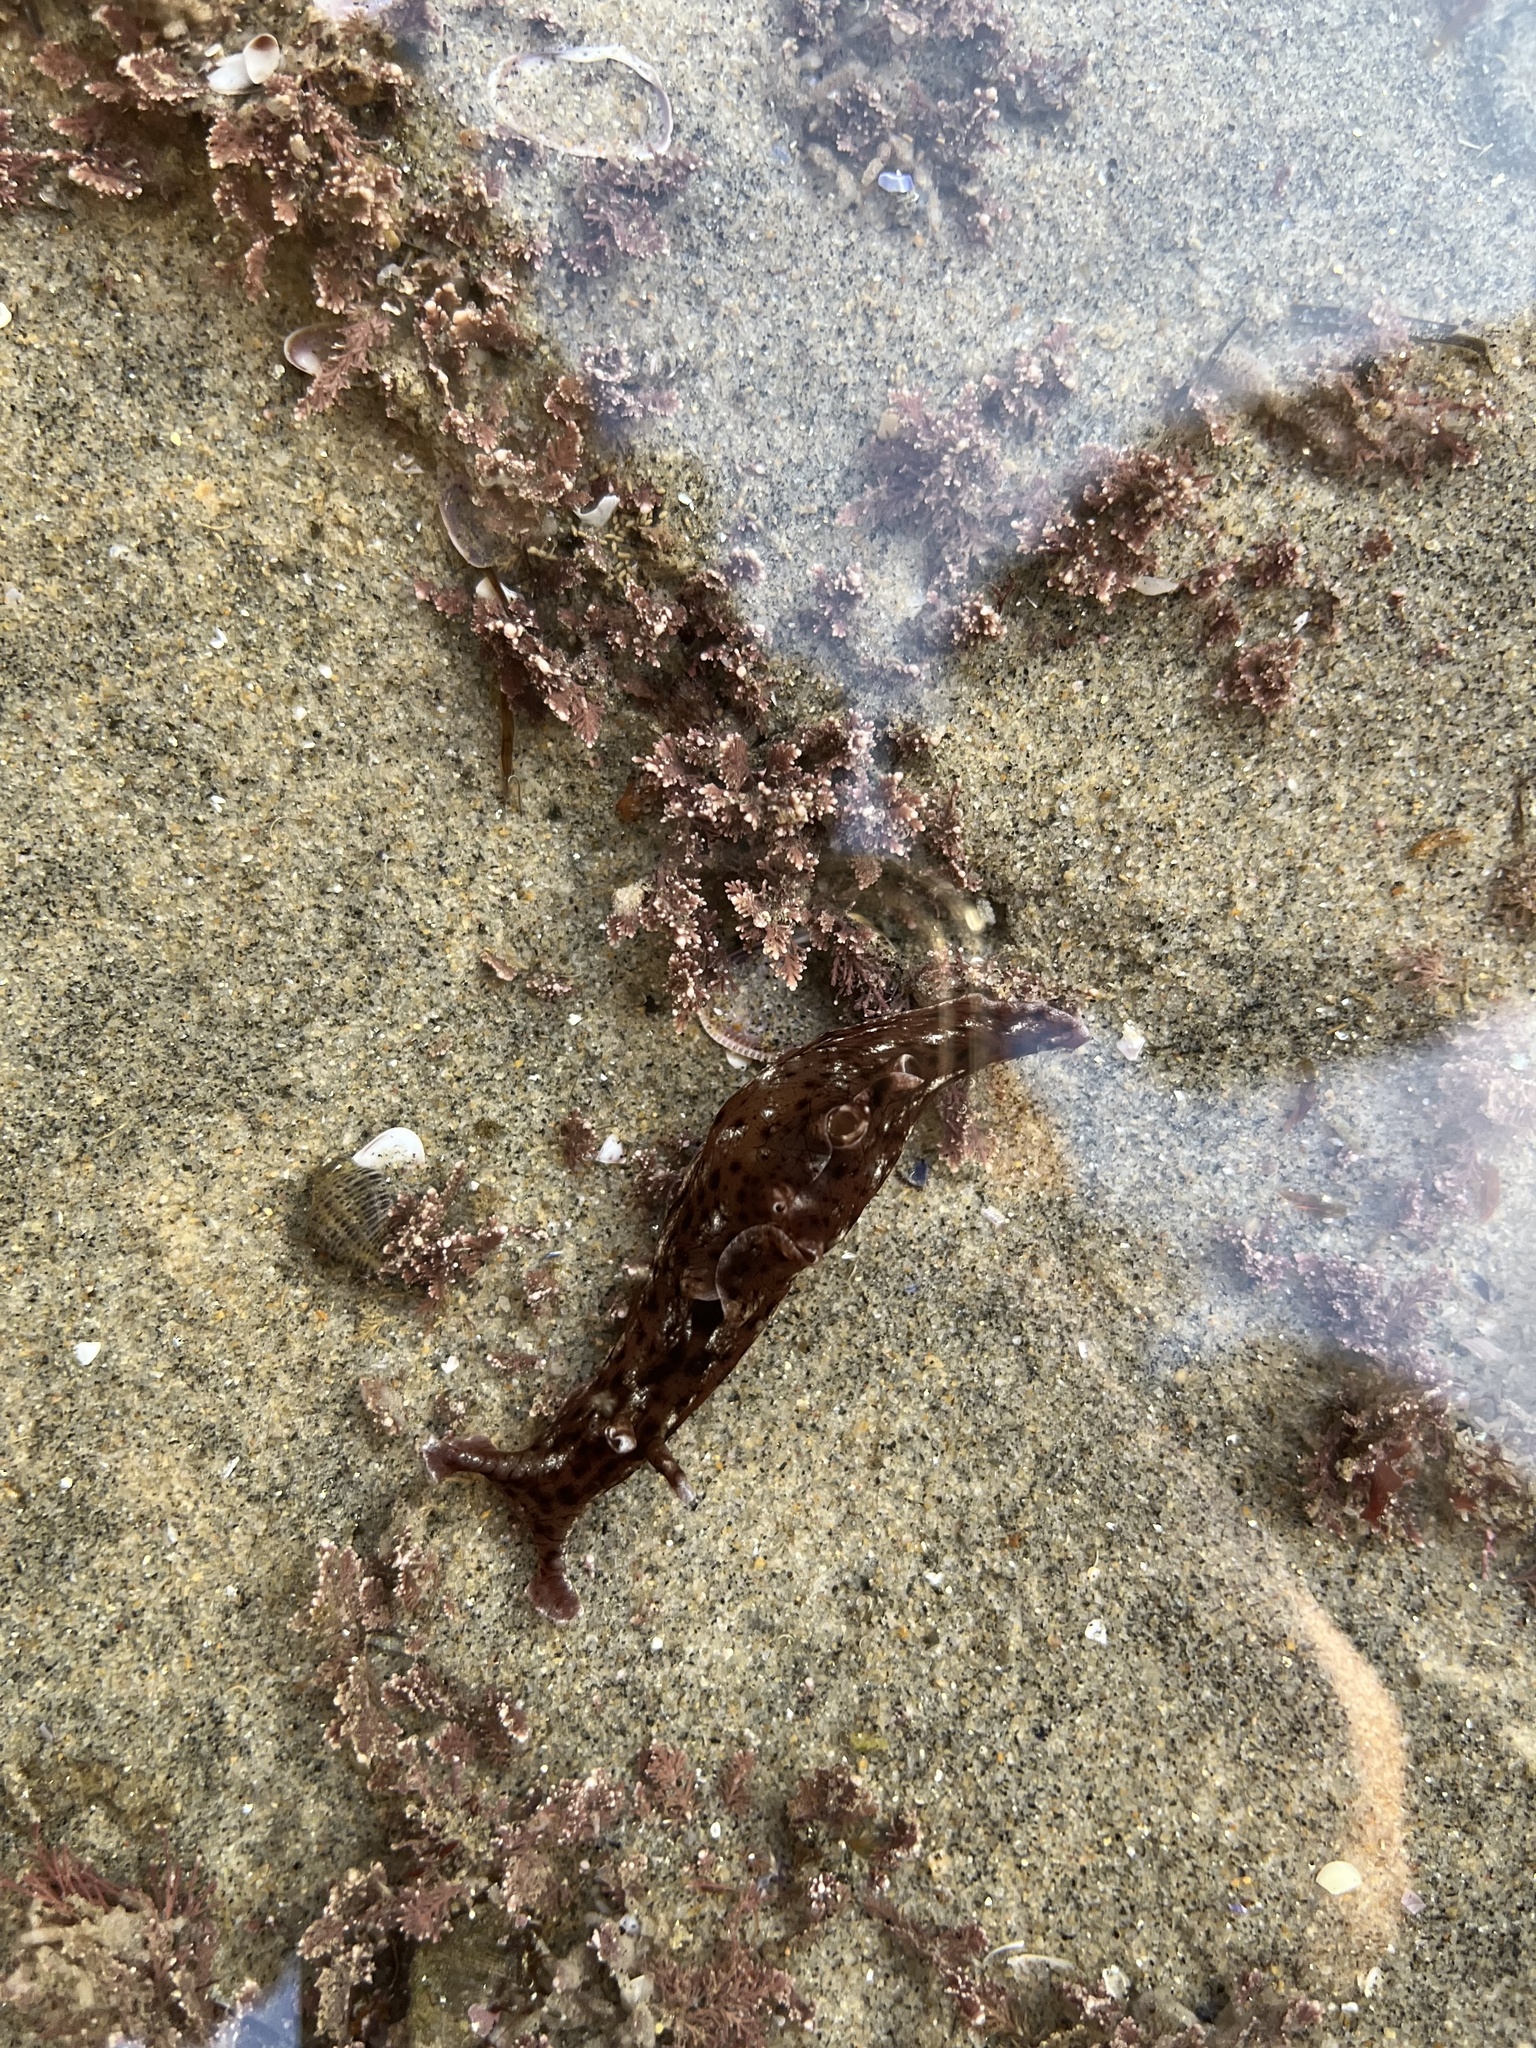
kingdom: Animalia
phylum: Mollusca
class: Gastropoda
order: Aplysiida
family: Aplysiidae
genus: Aplysia
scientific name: Aplysia californica
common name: California seahare
